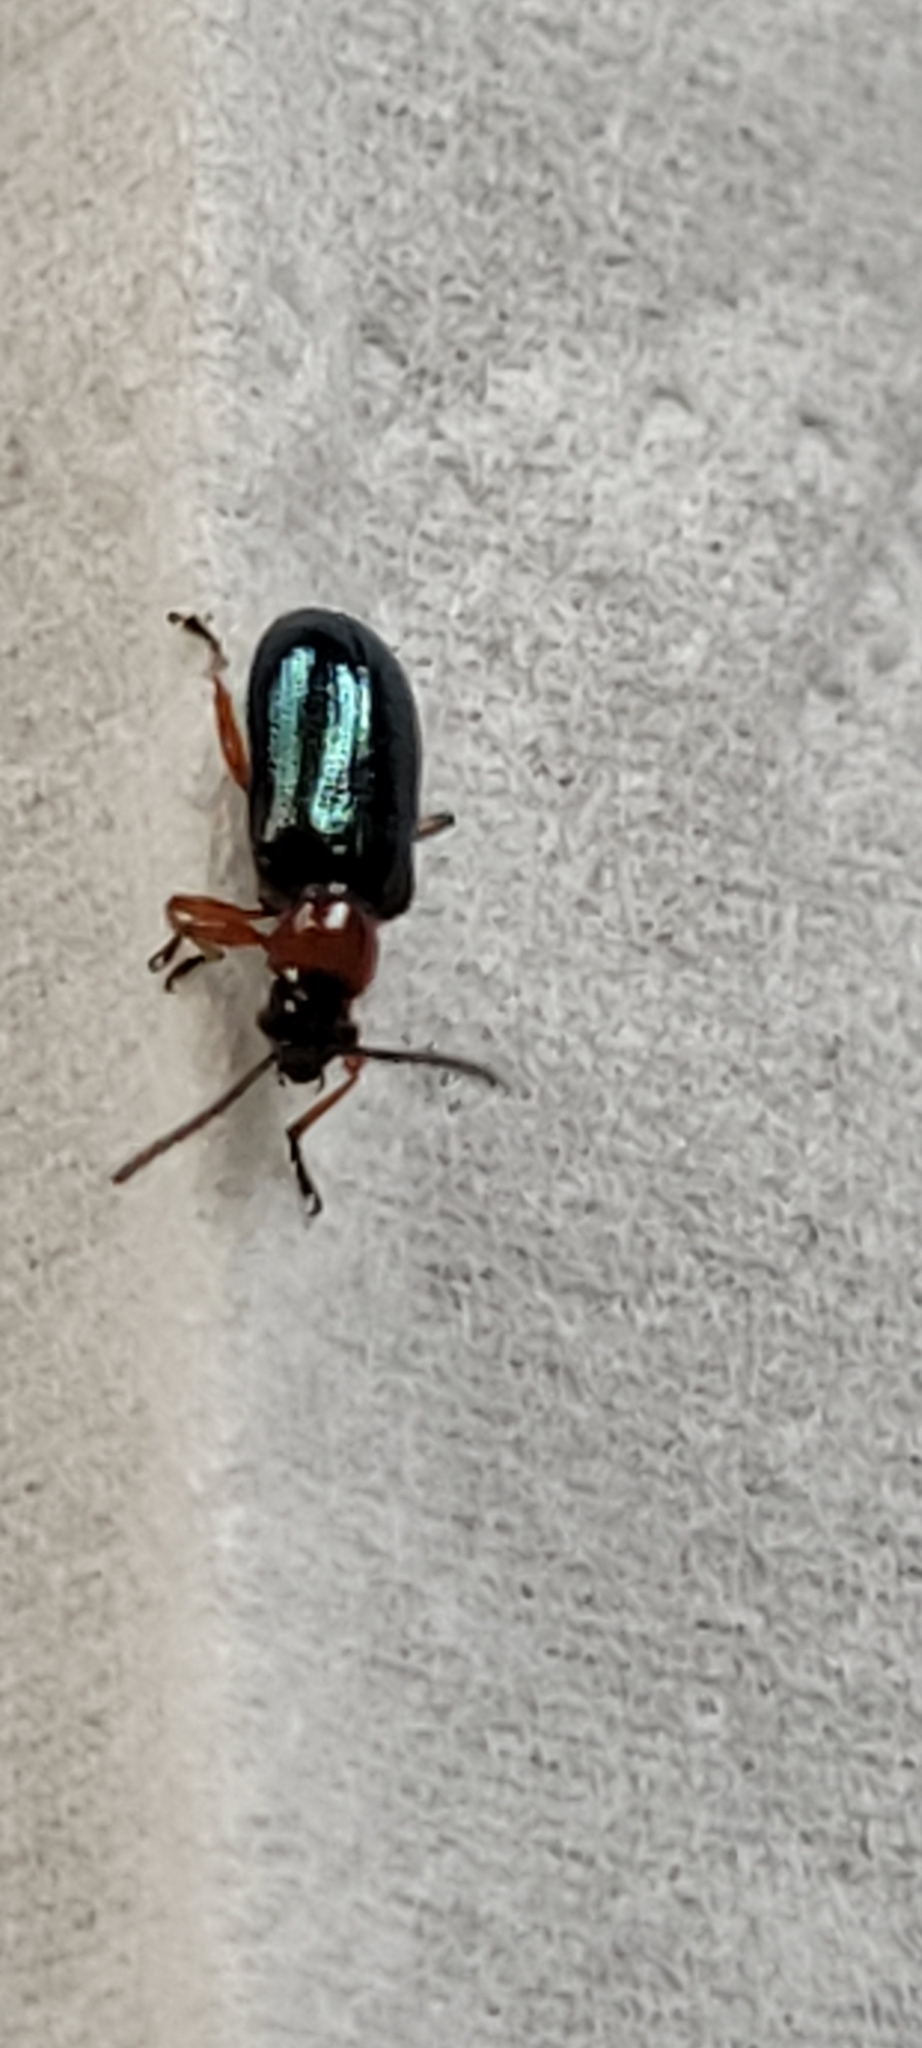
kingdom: Animalia
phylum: Arthropoda
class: Insecta
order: Coleoptera
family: Chrysomelidae
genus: Oulema
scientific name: Oulema
